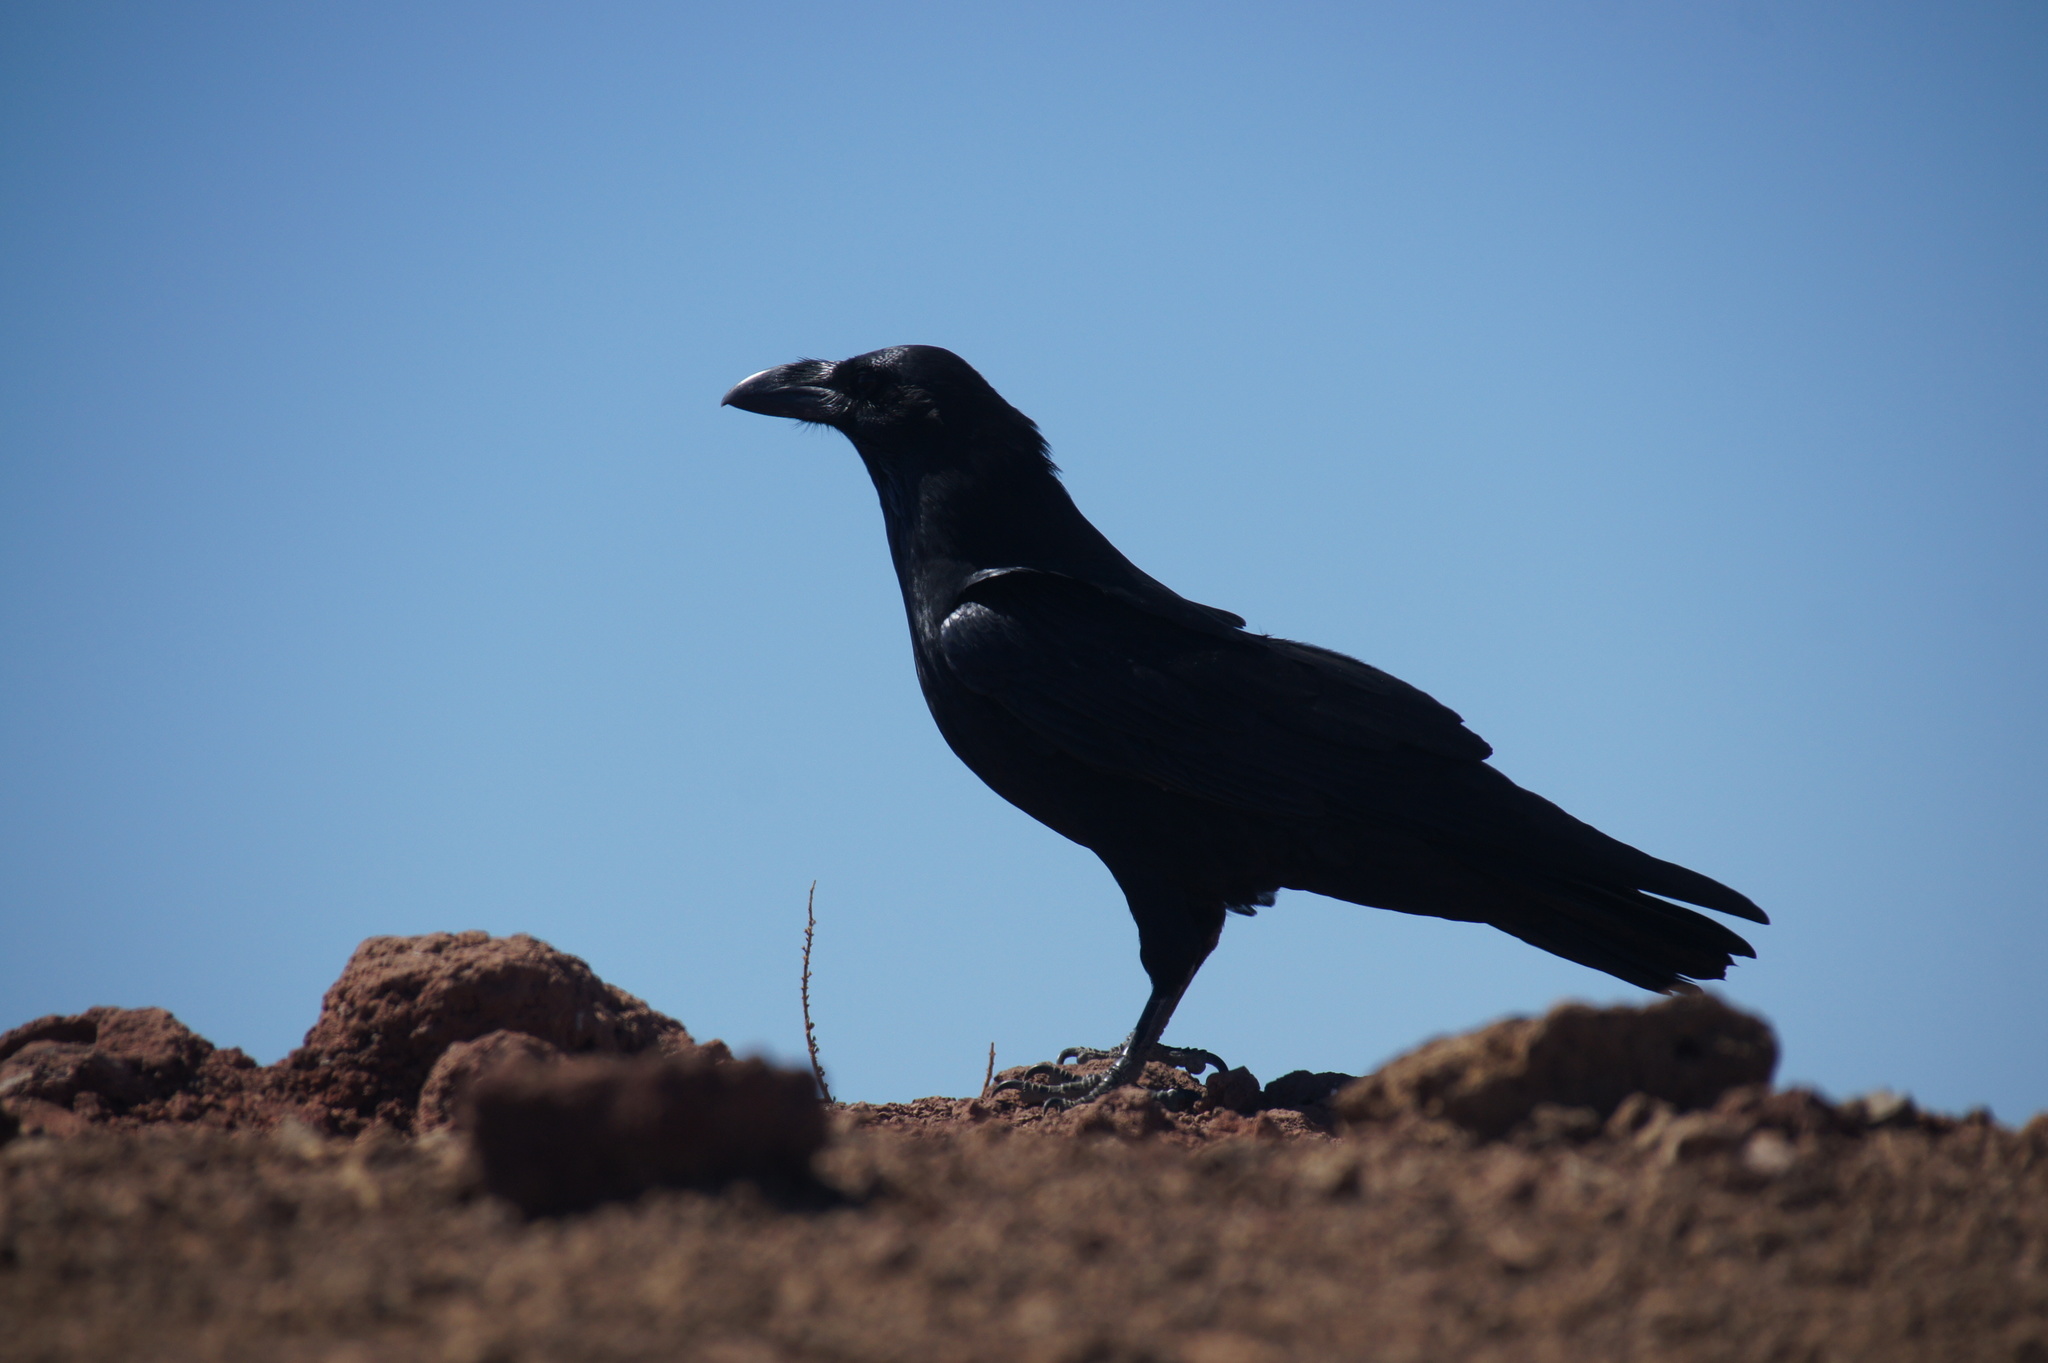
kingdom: Animalia
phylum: Chordata
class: Aves
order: Passeriformes
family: Corvidae
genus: Corvus
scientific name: Corvus corax
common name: Common raven
